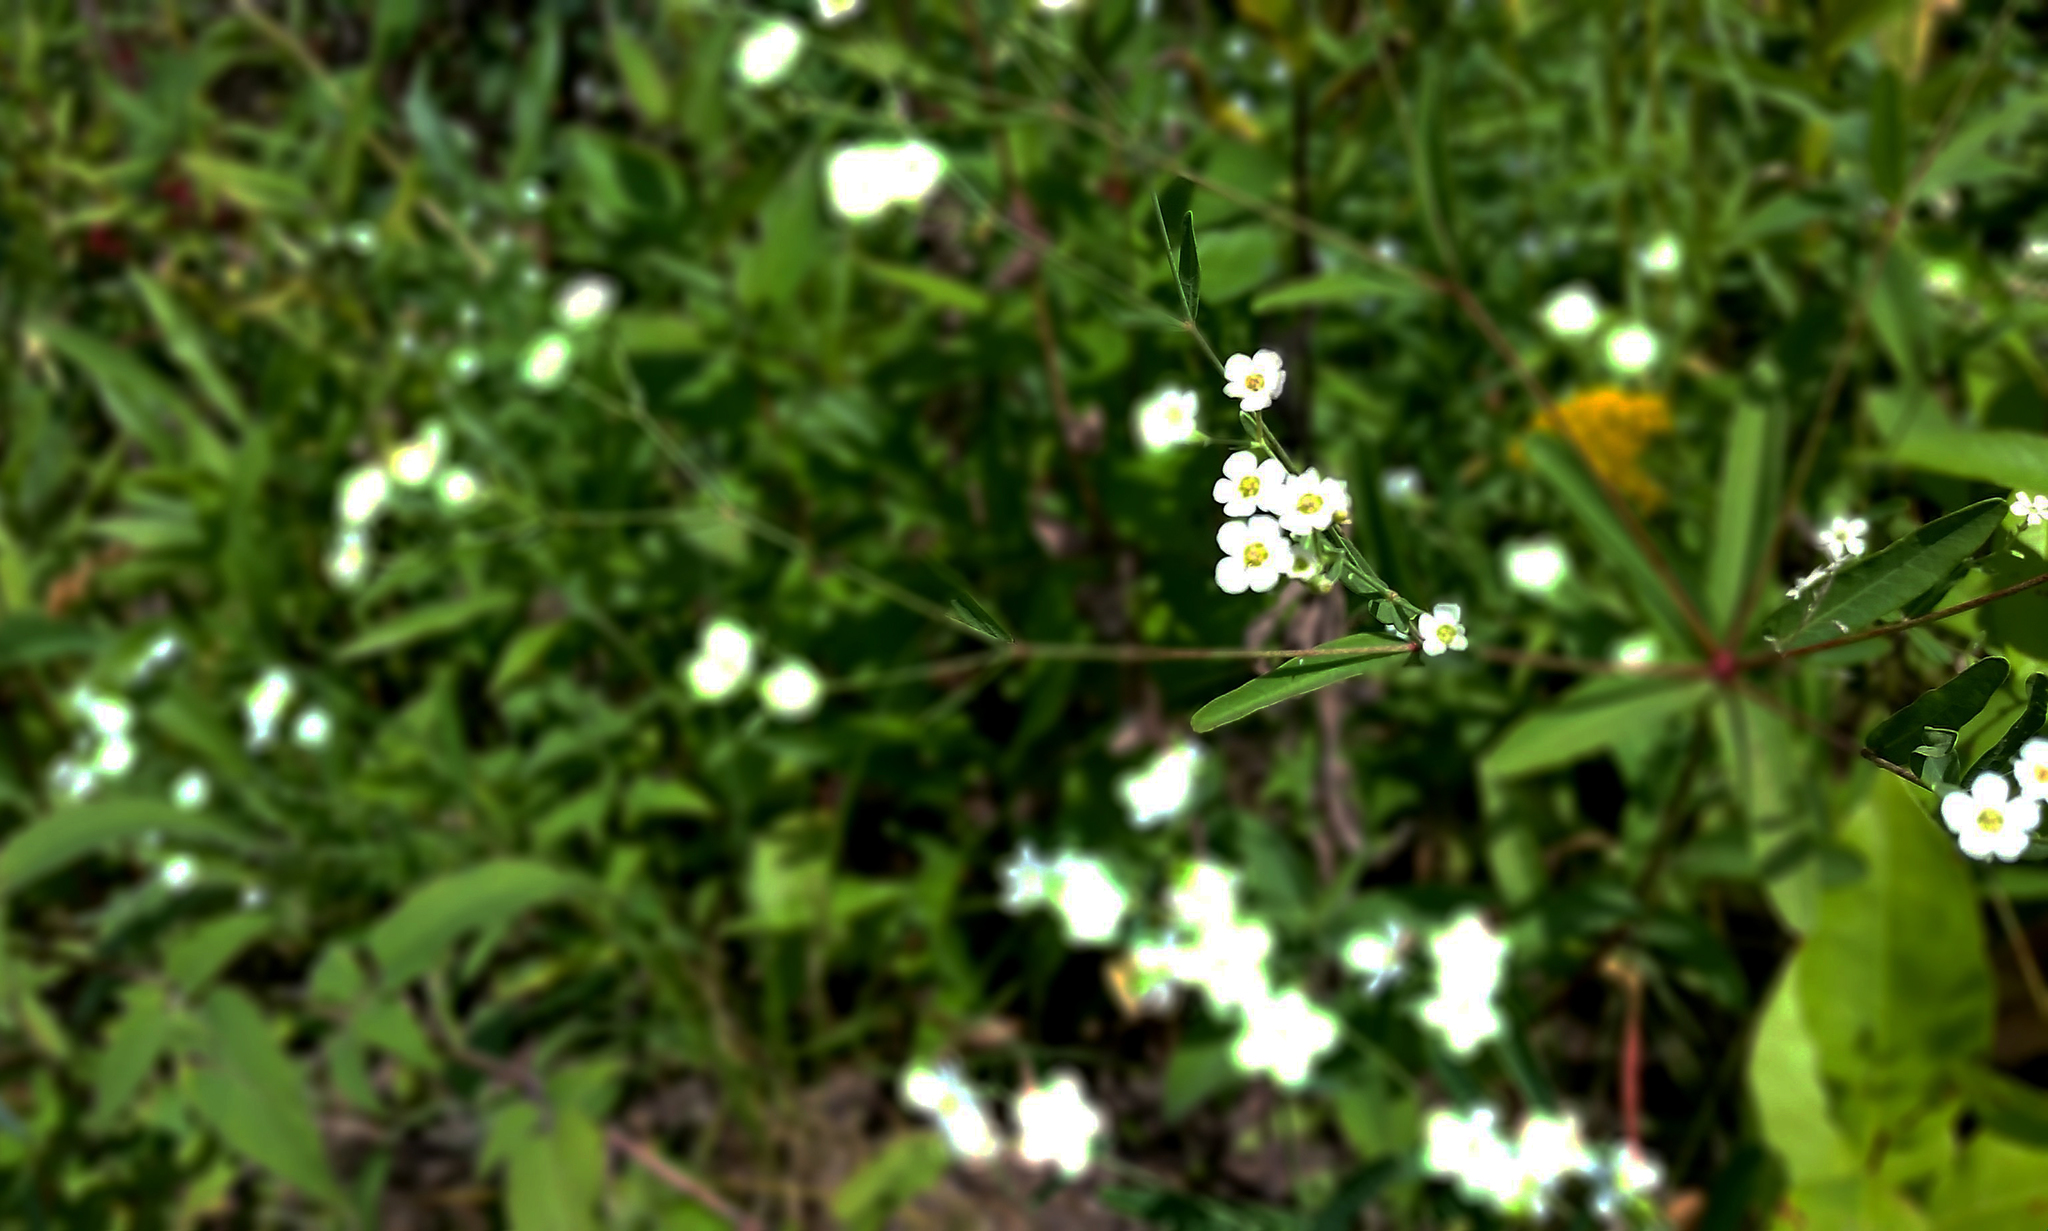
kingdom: Plantae
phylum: Tracheophyta
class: Magnoliopsida
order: Malpighiales
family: Euphorbiaceae
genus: Euphorbia
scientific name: Euphorbia corollata
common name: Flowering spurge
